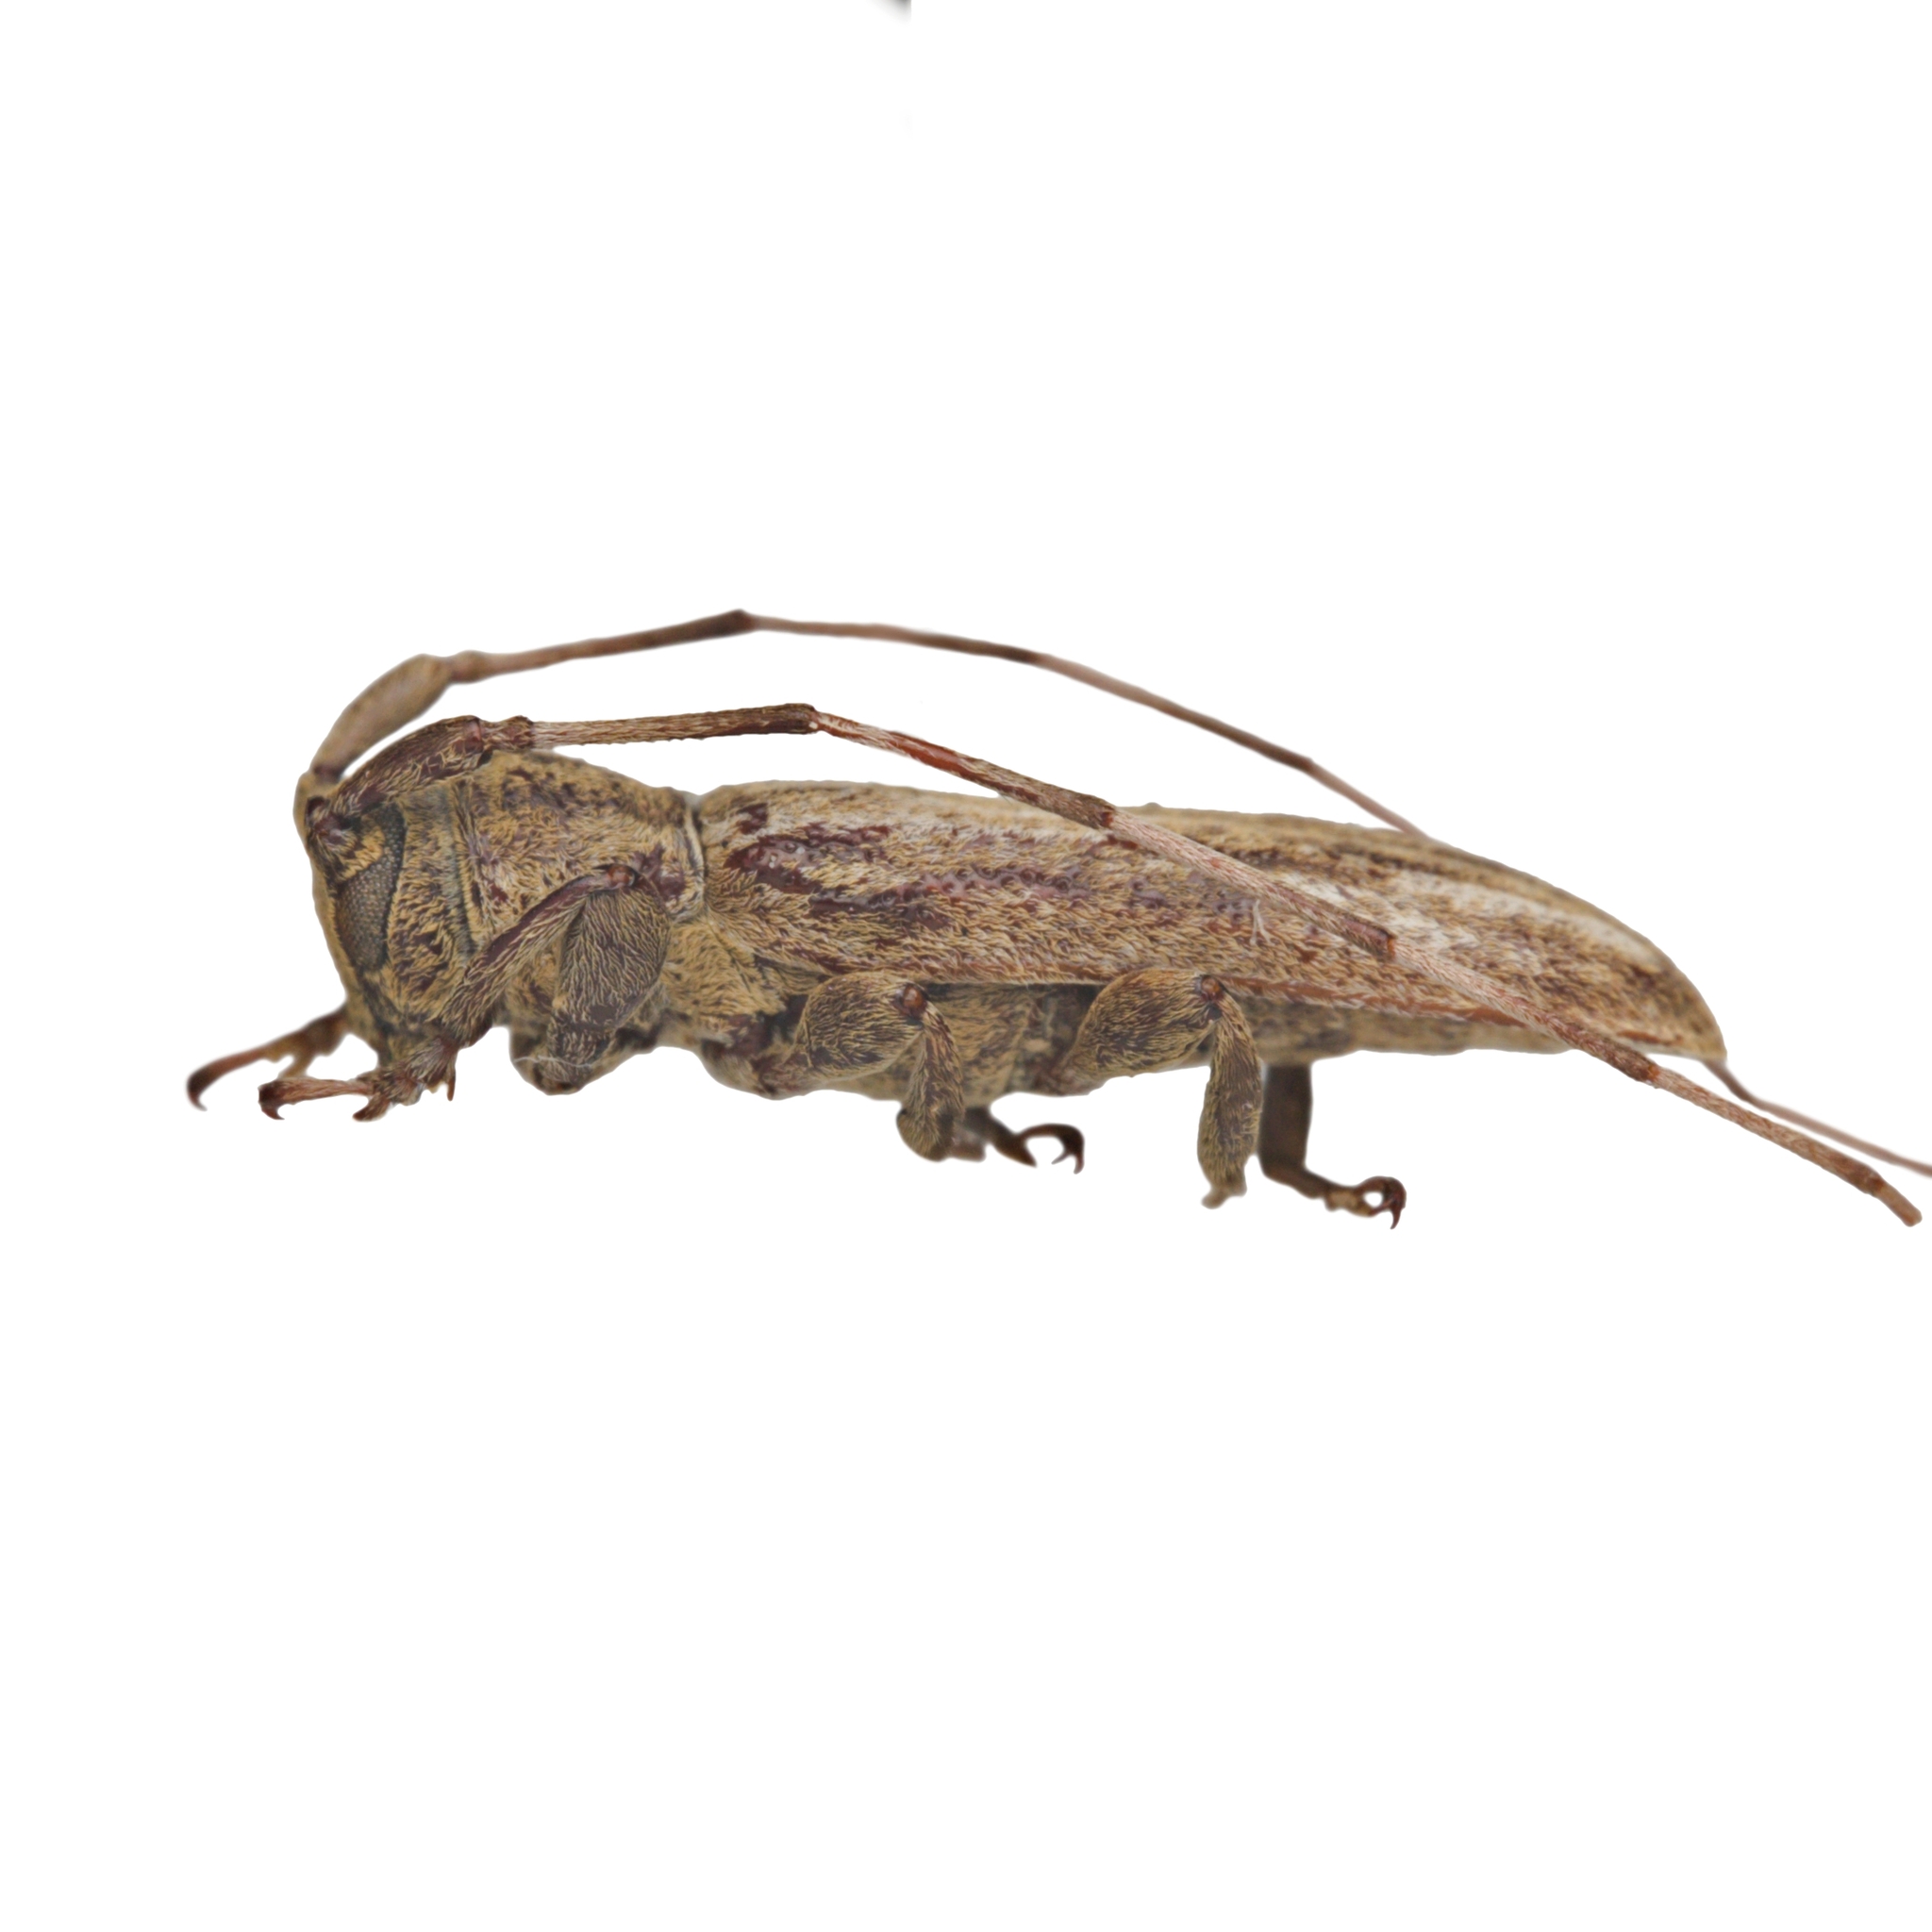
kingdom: Animalia
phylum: Arthropoda
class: Insecta
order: Coleoptera
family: Cerambycidae
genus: Cacostola
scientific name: Cacostola lineata
